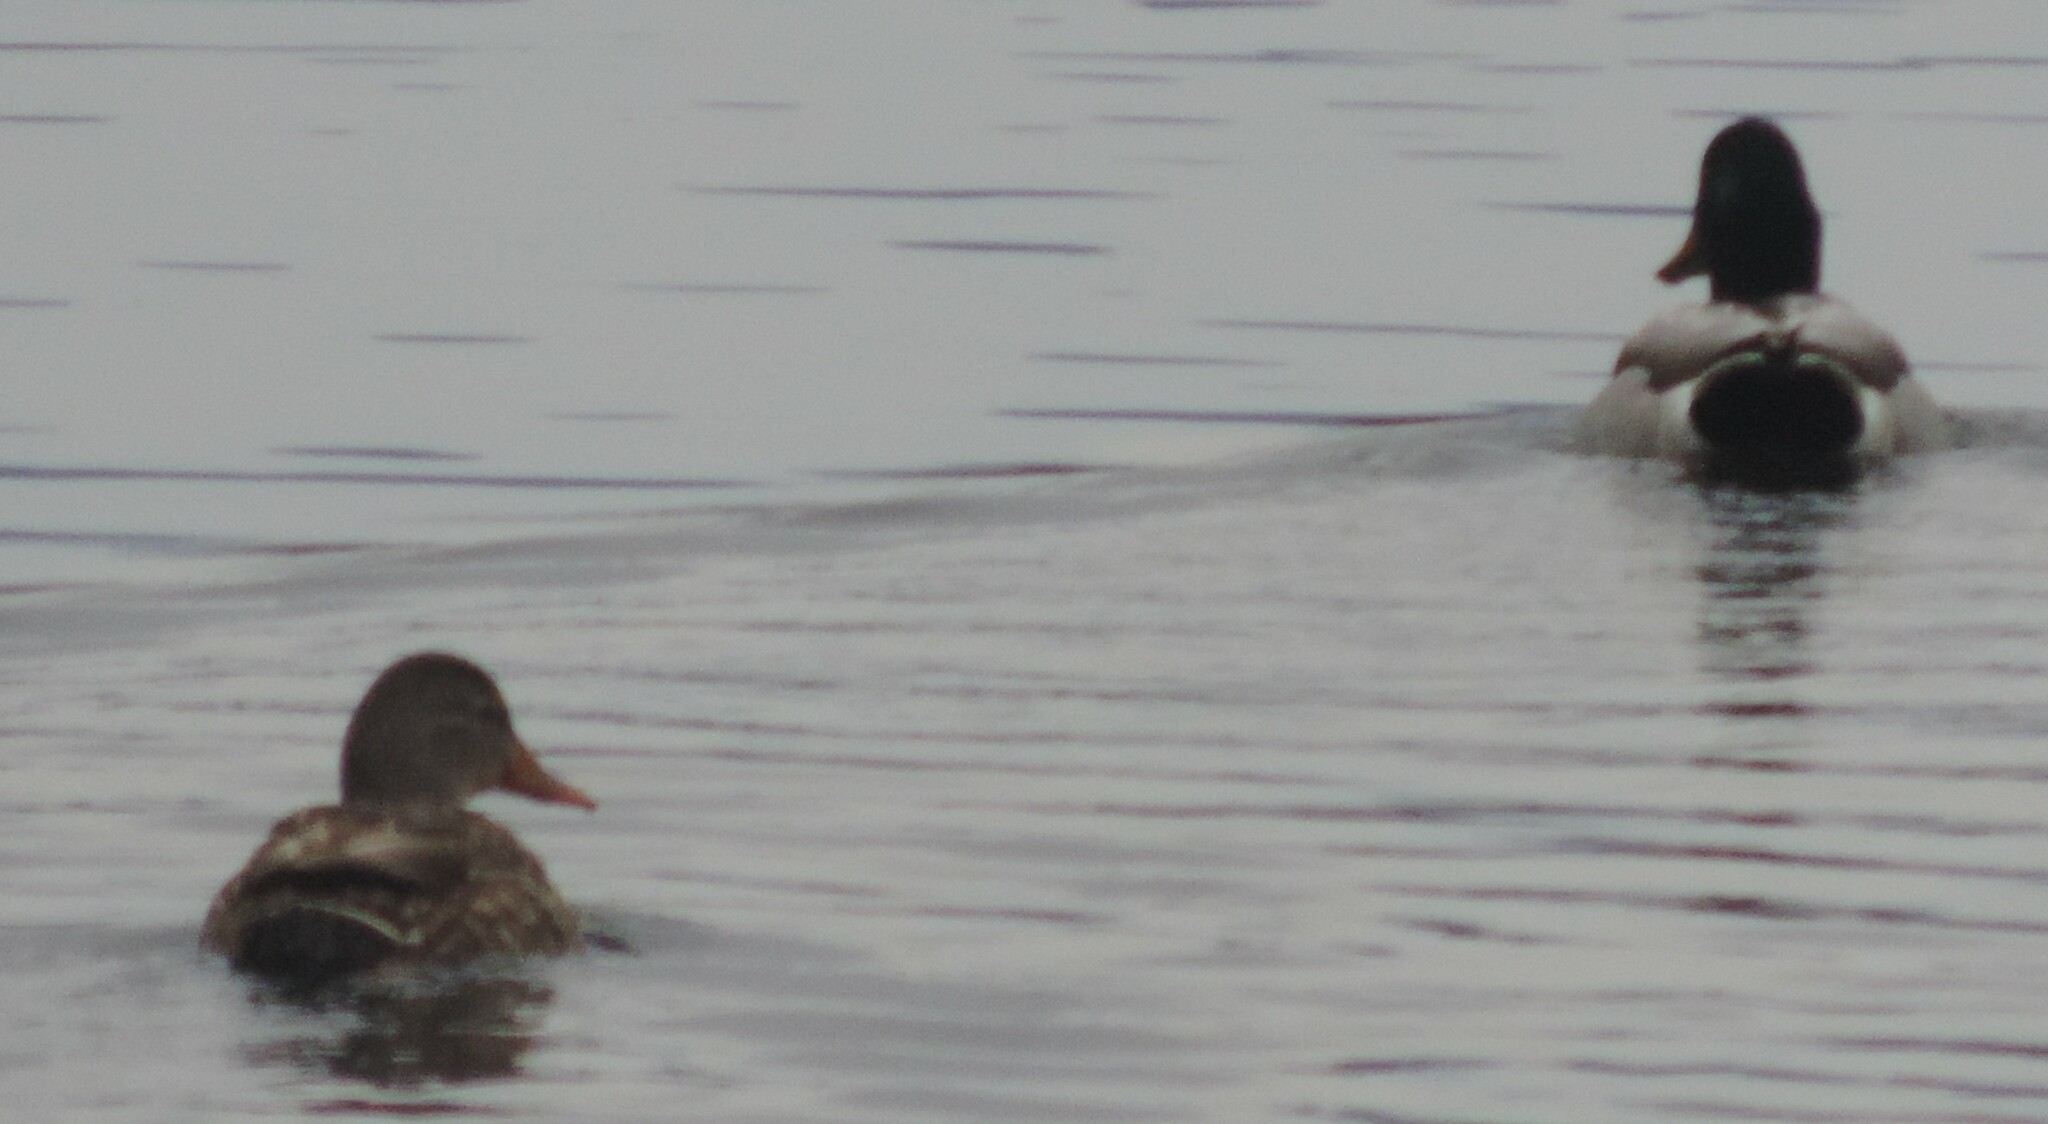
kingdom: Animalia
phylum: Chordata
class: Aves
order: Anseriformes
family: Anatidae
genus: Anas
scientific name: Anas platyrhynchos
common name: Mallard
